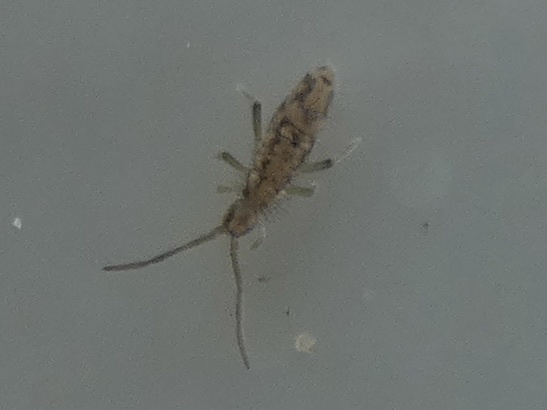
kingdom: Animalia
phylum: Arthropoda
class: Collembola
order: Entomobryomorpha
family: Entomobryidae
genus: Entomobrya
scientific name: Entomobrya intermedia
